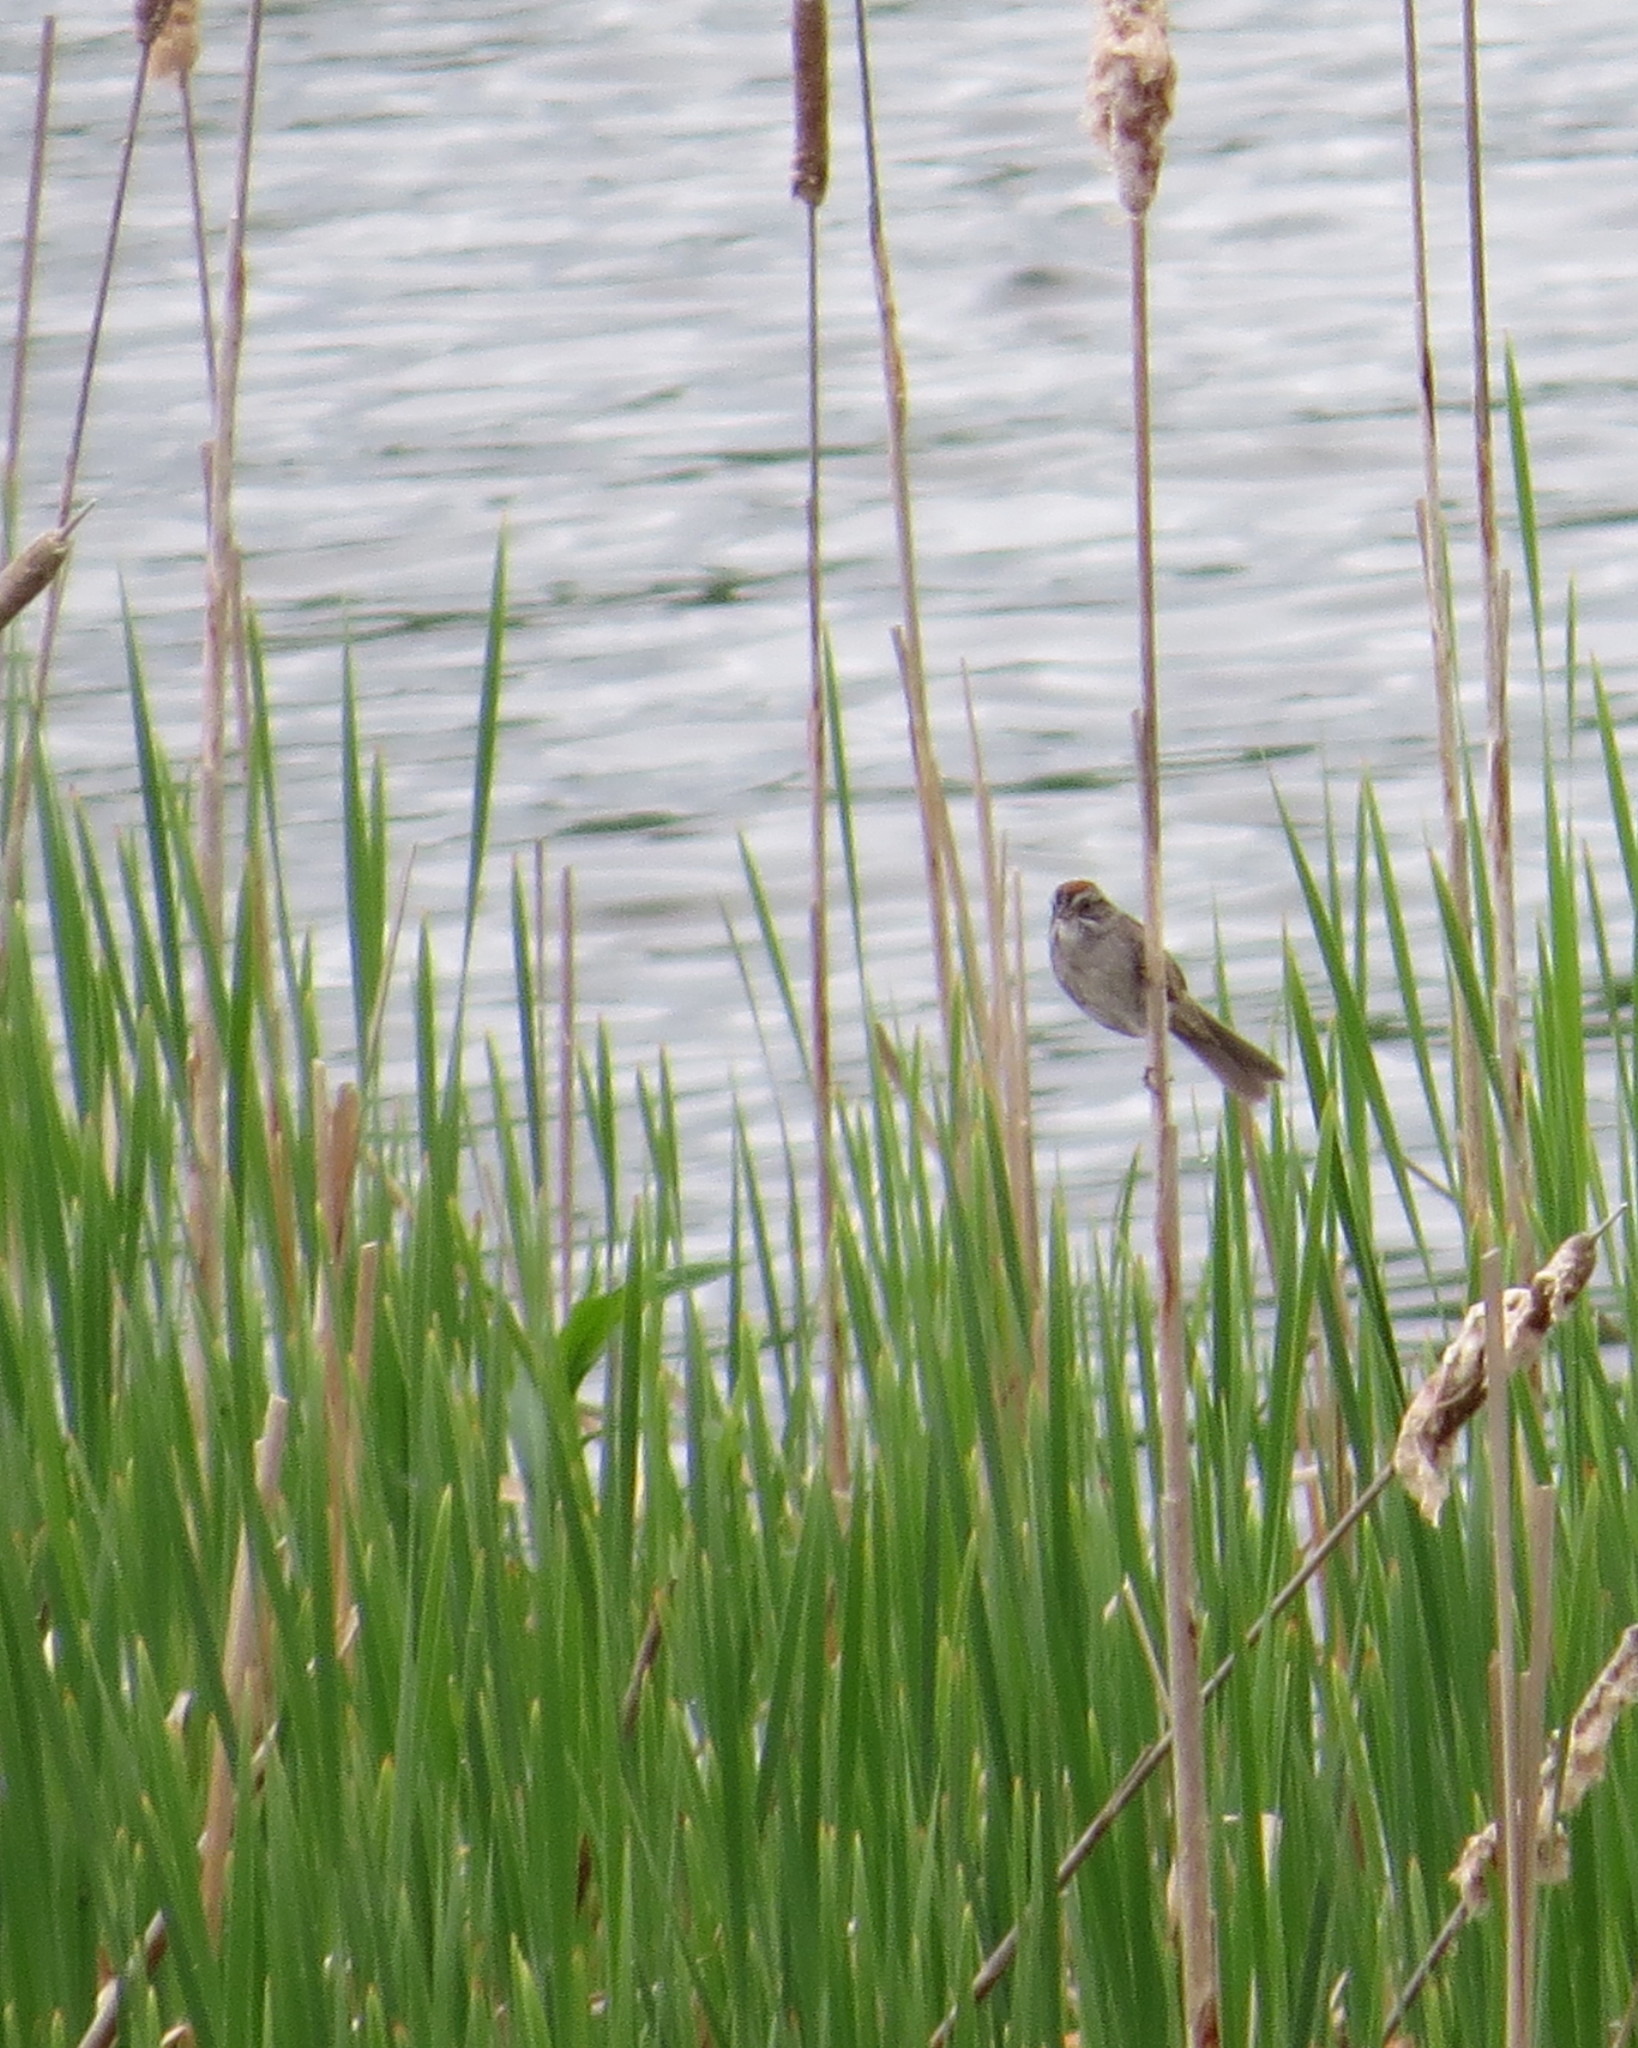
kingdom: Animalia
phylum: Chordata
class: Aves
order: Passeriformes
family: Passerellidae
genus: Melospiza
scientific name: Melospiza georgiana
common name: Swamp sparrow
